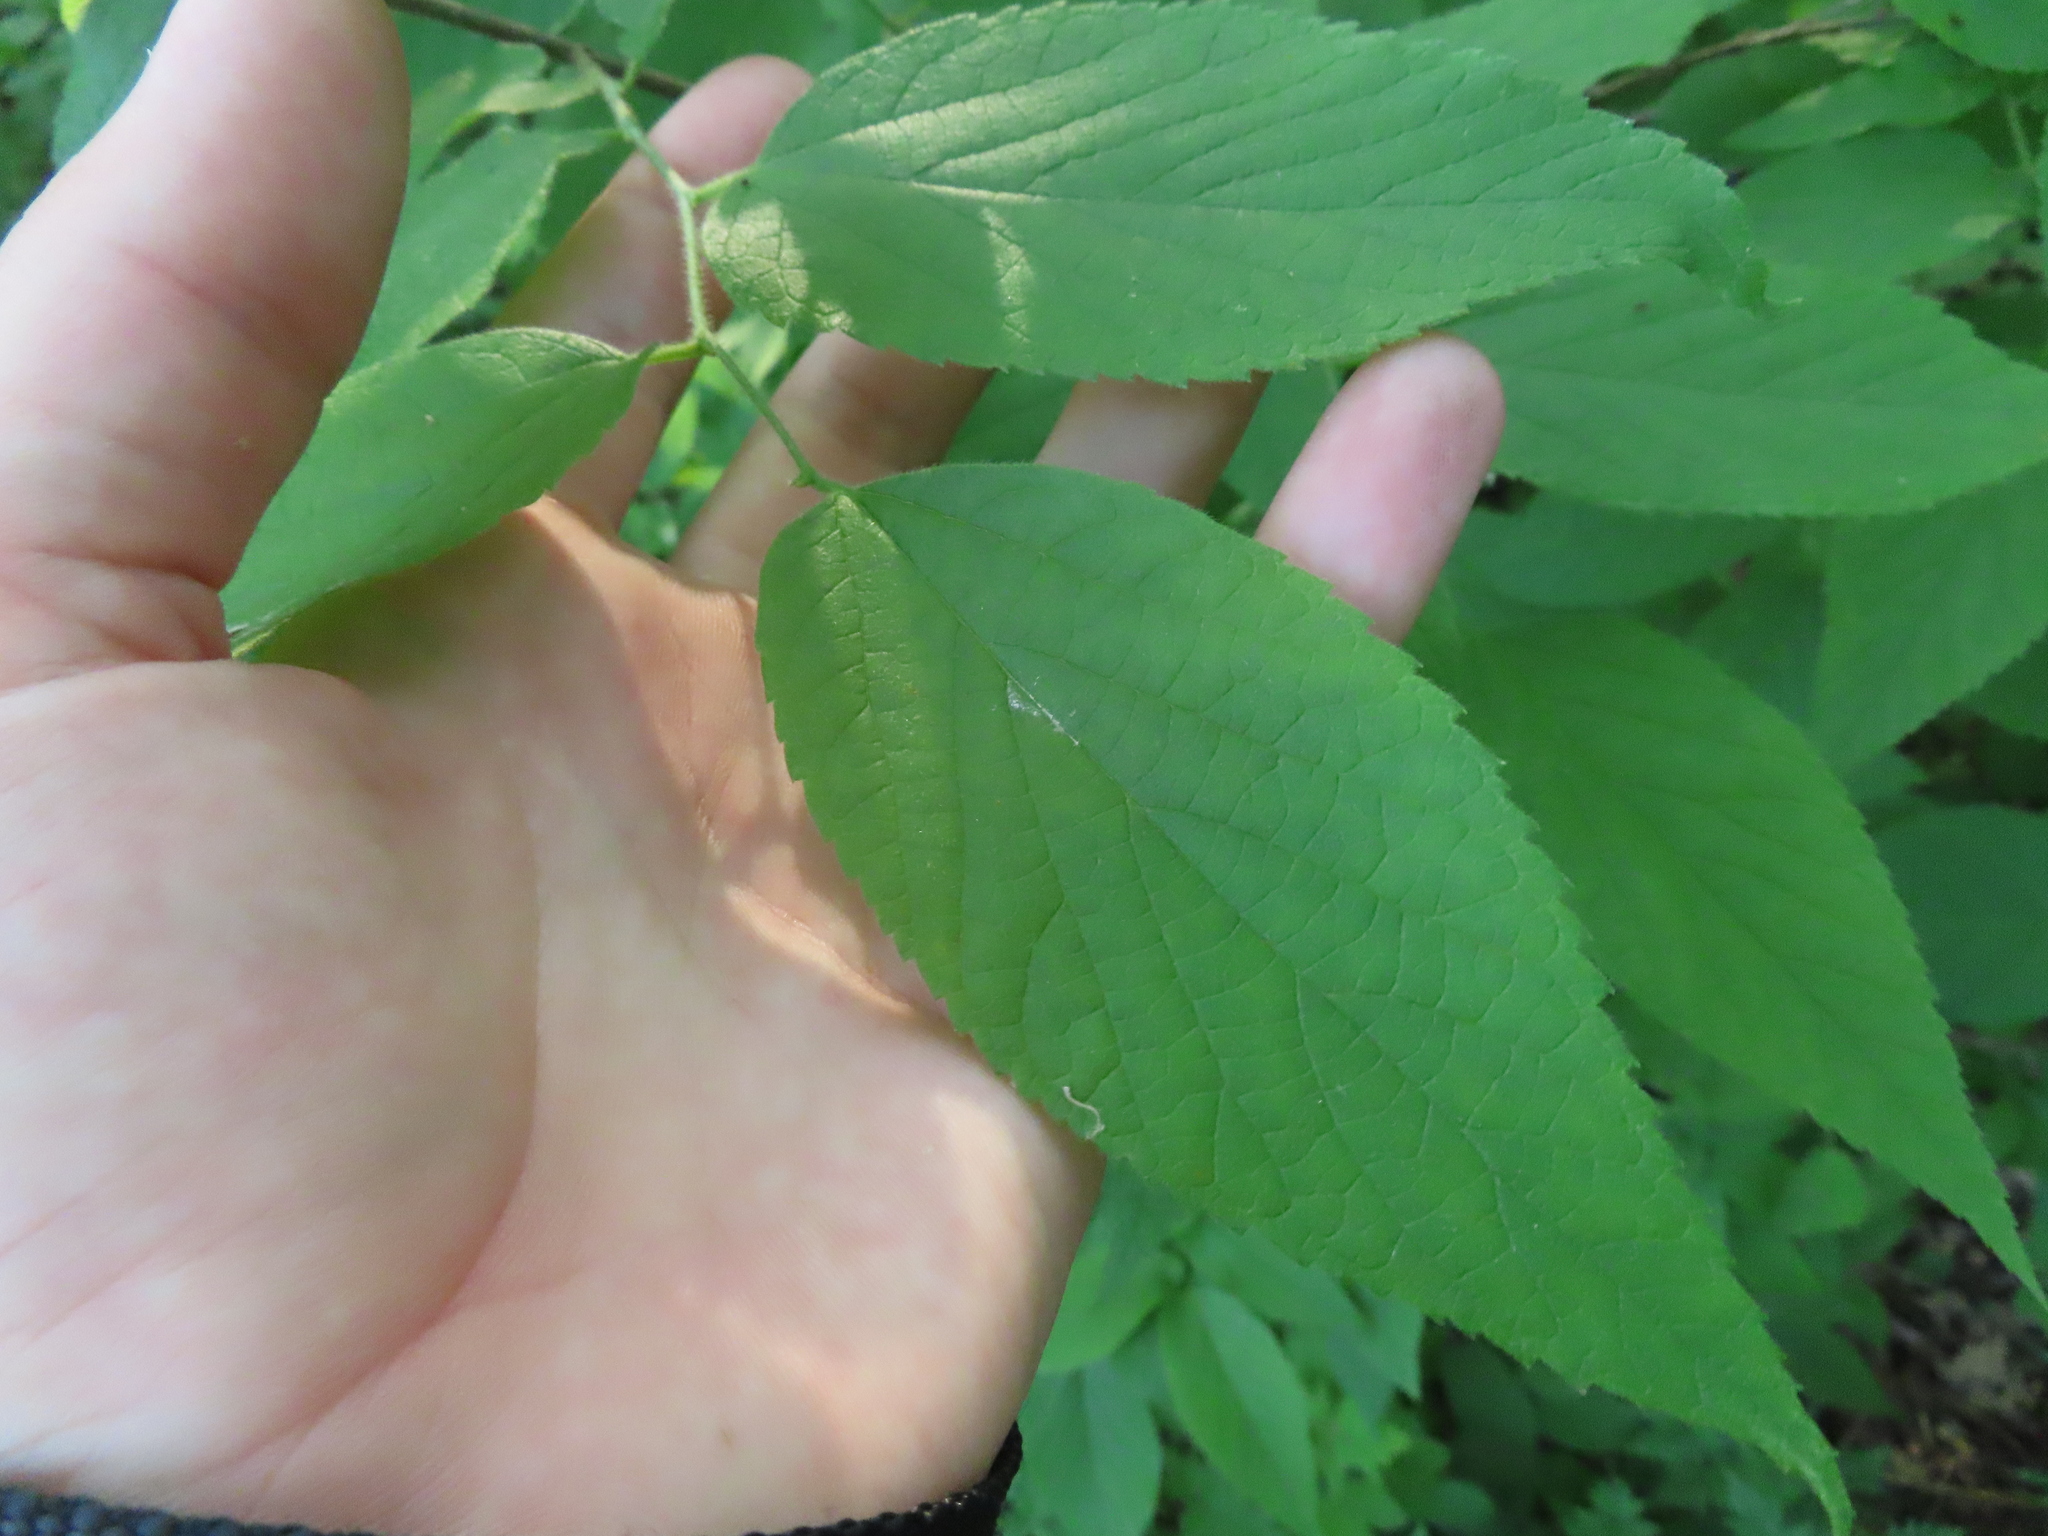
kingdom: Plantae
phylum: Tracheophyta
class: Magnoliopsida
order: Rosales
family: Cannabaceae
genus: Celtis
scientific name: Celtis occidentalis
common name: Common hackberry
